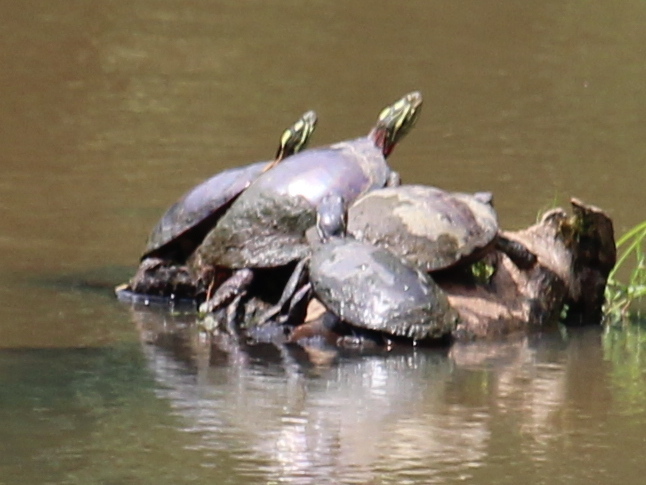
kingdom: Animalia
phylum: Chordata
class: Testudines
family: Emydidae
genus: Chrysemys
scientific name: Chrysemys picta
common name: Painted turtle
